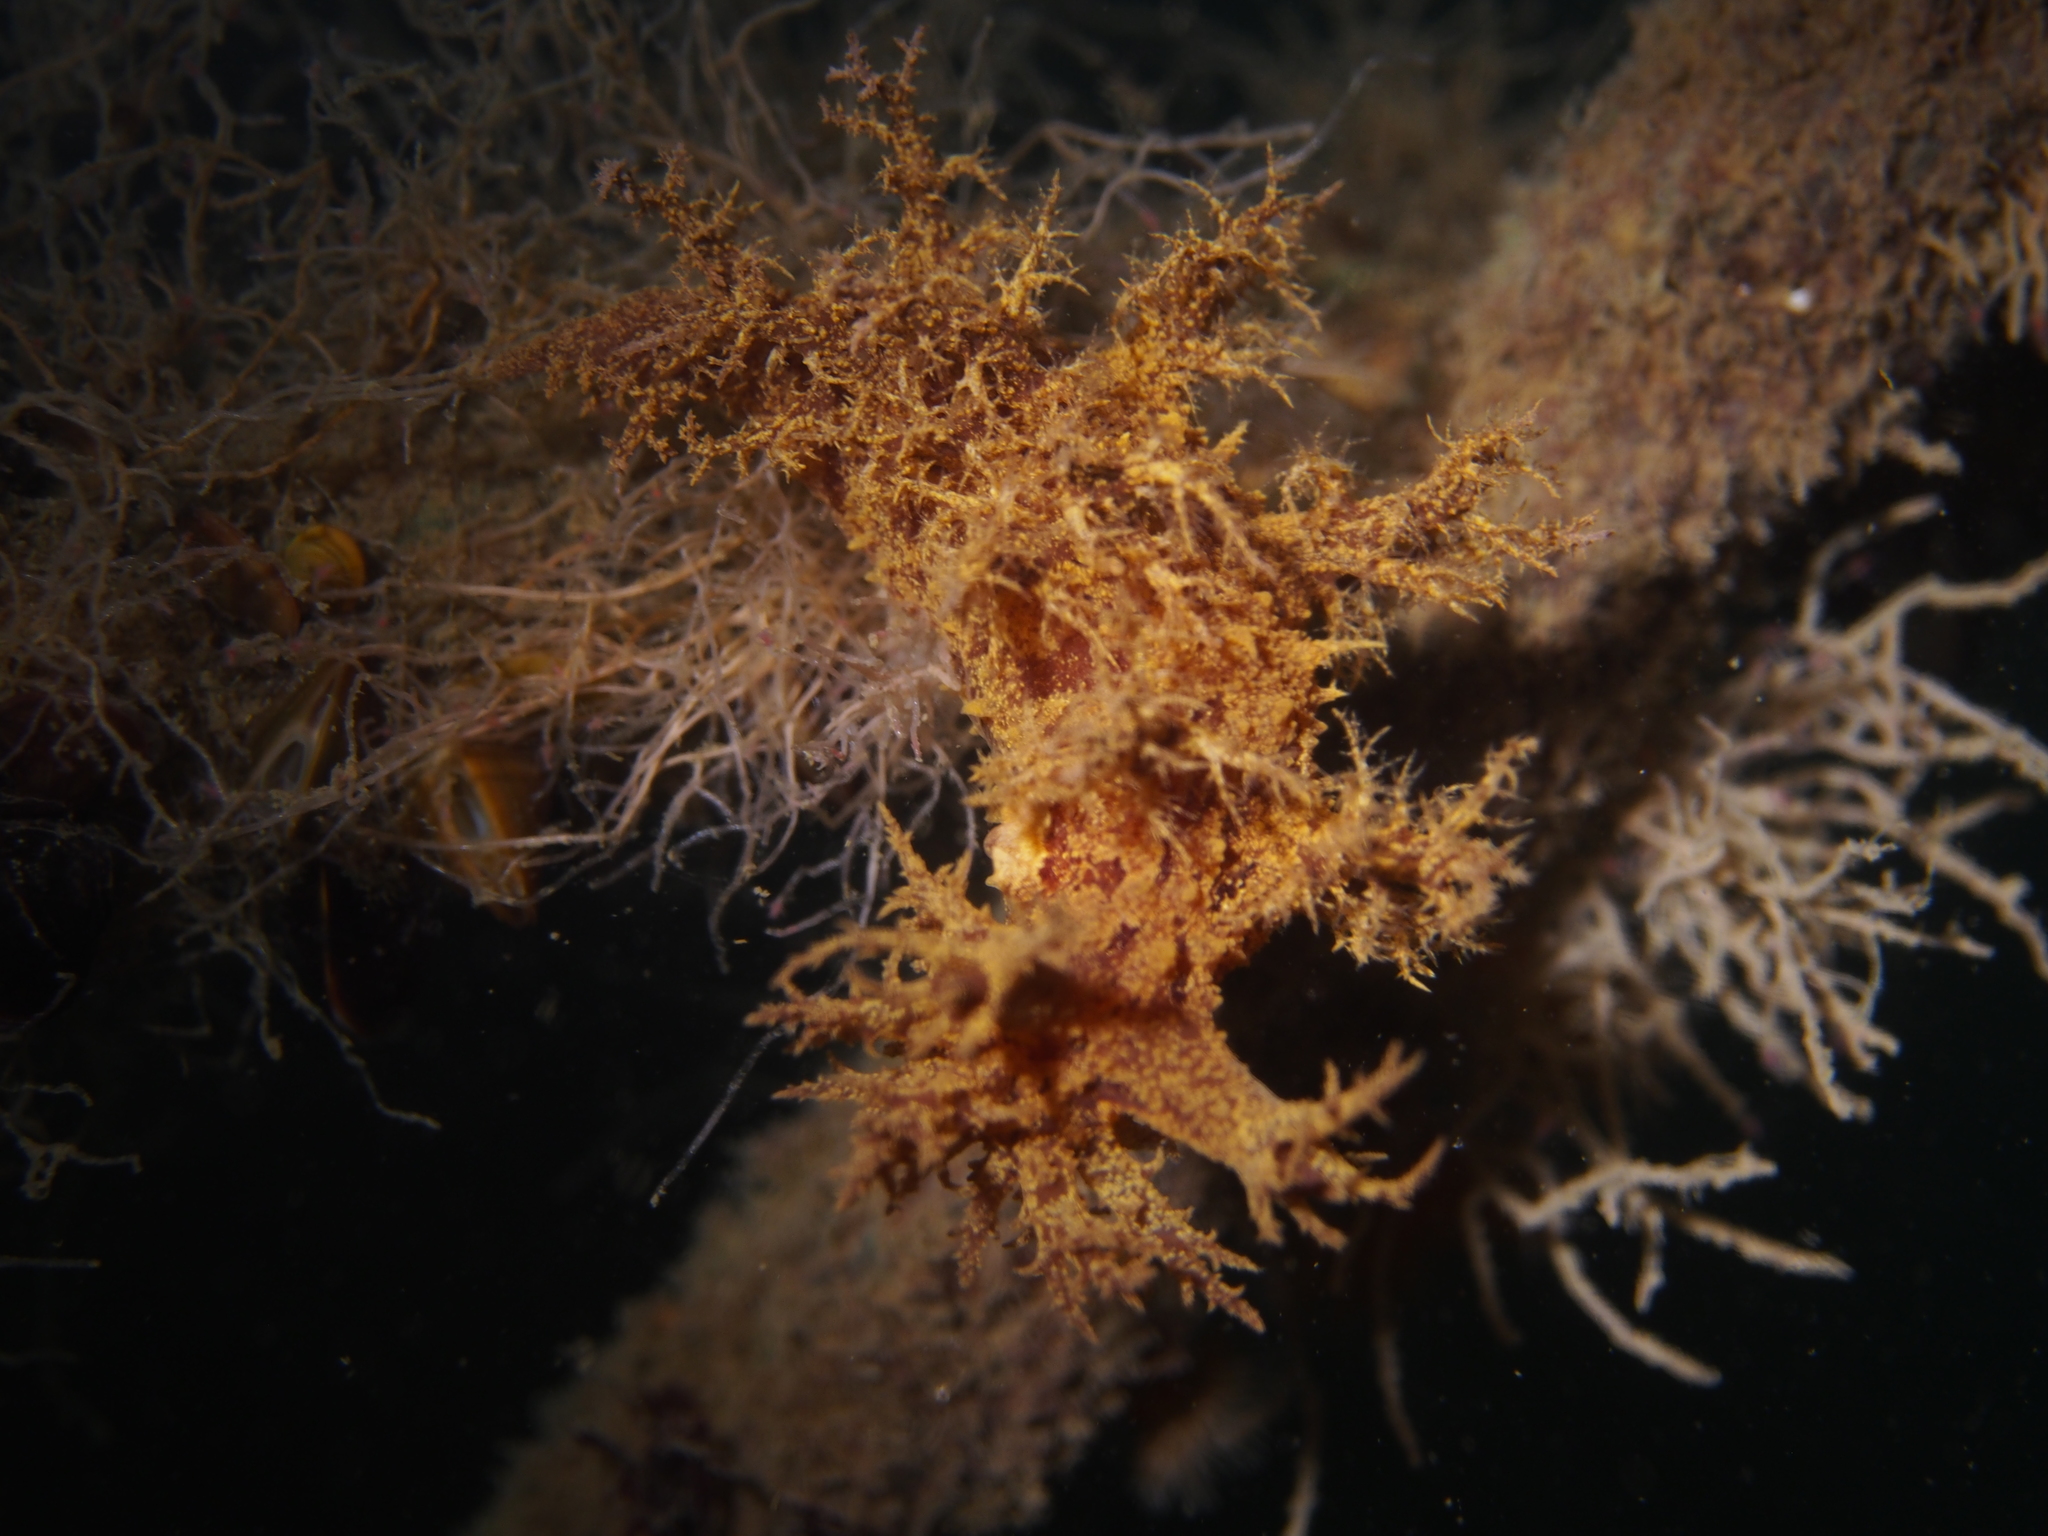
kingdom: Animalia
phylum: Mollusca
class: Gastropoda
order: Nudibranchia
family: Dendronotidae
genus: Dendronotus
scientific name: Dendronotus europaeus
